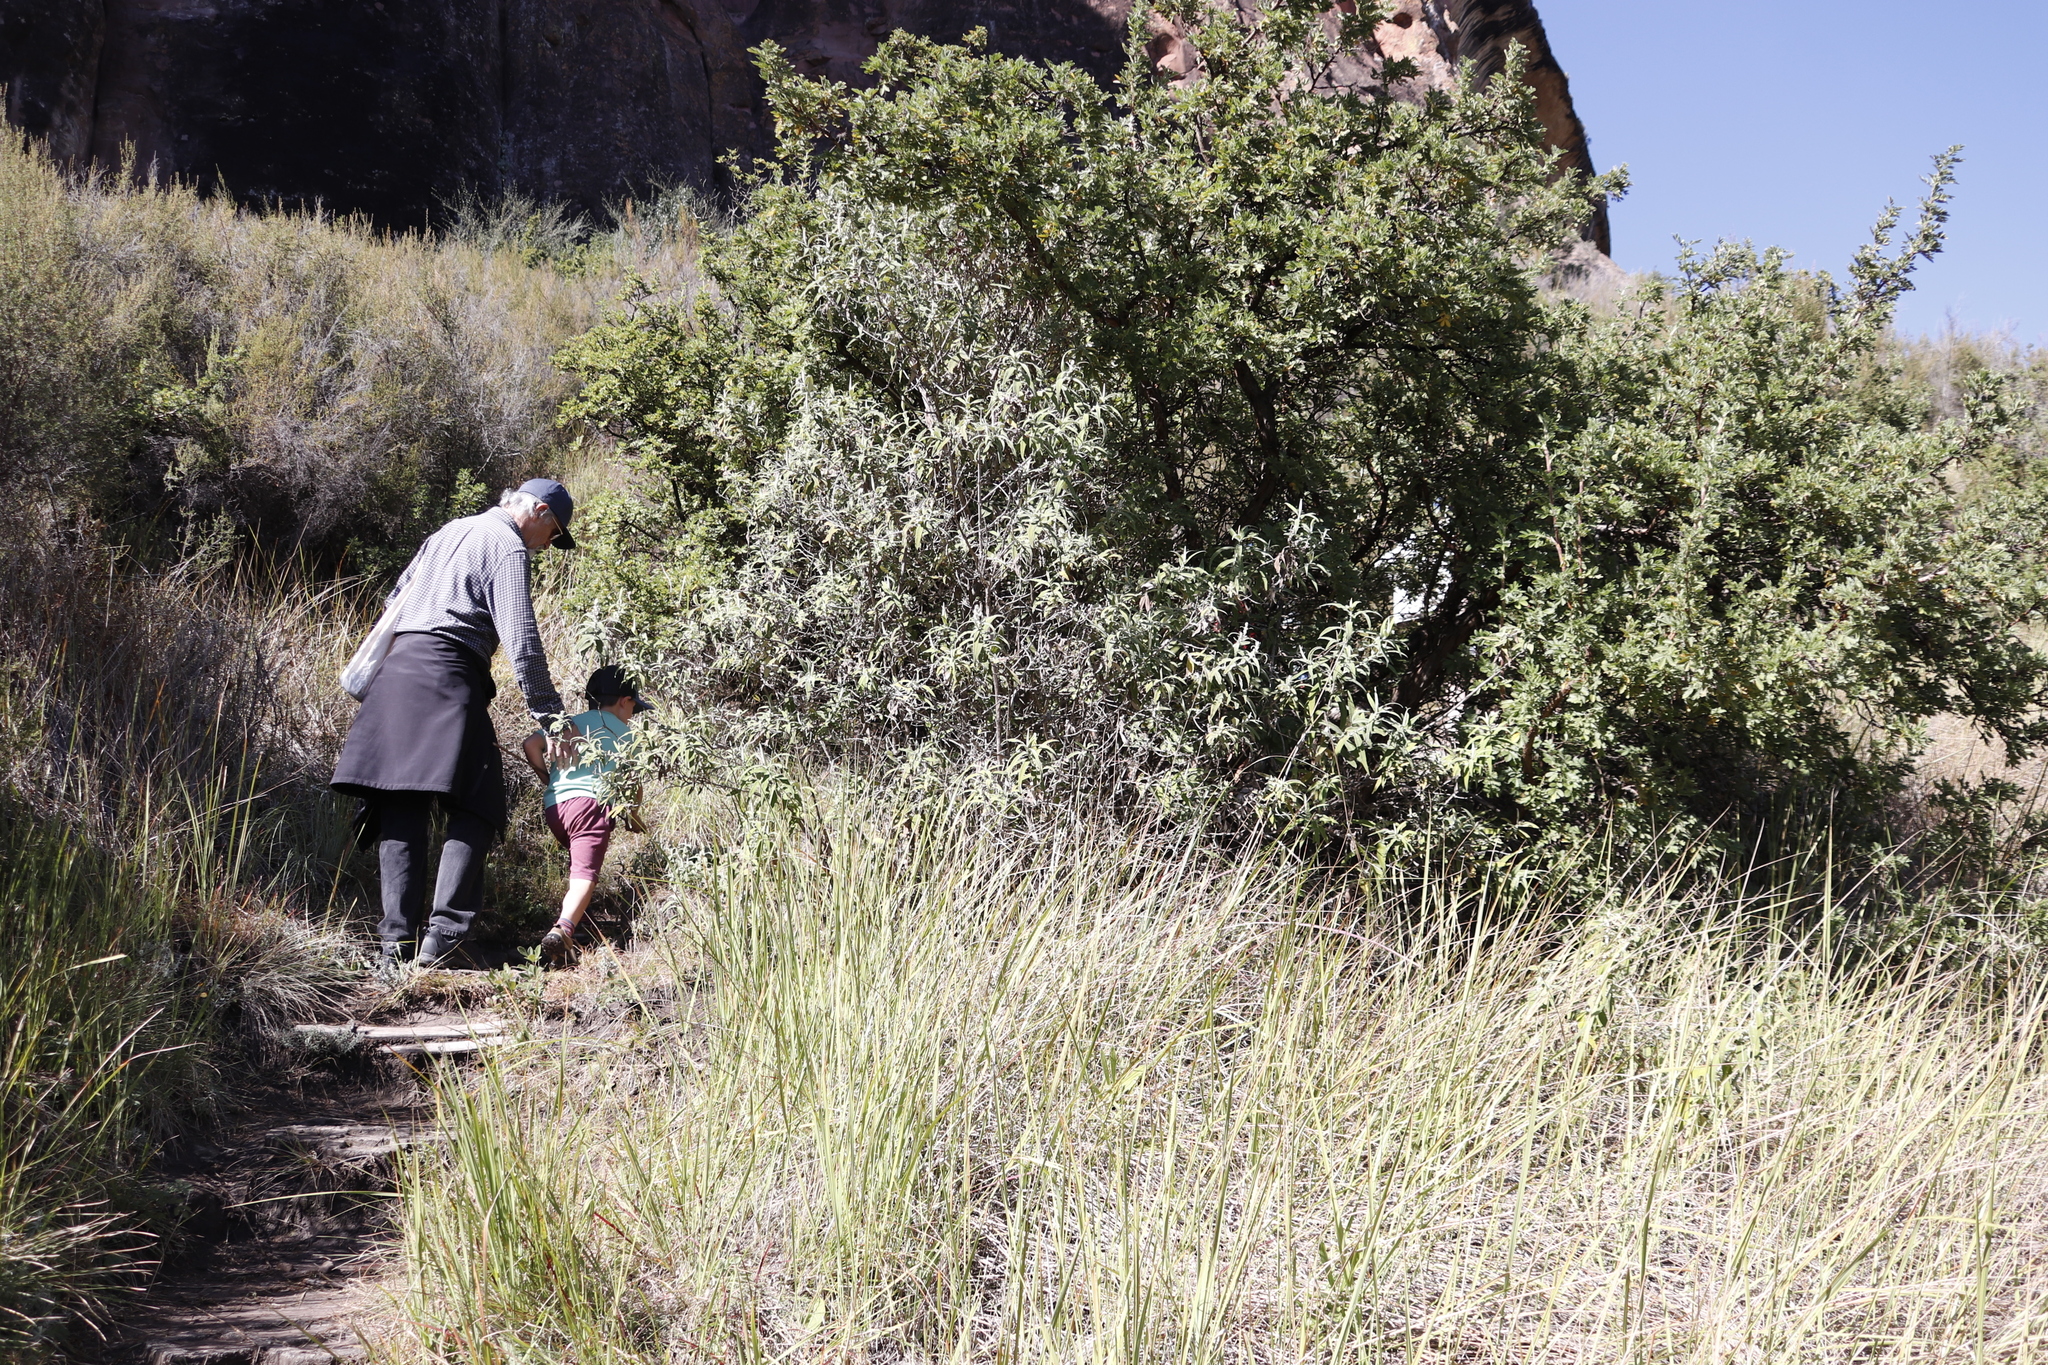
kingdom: Plantae
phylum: Tracheophyta
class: Magnoliopsida
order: Lamiales
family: Scrophulariaceae
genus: Buddleja
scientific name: Buddleja salviifolia
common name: Sagewood
